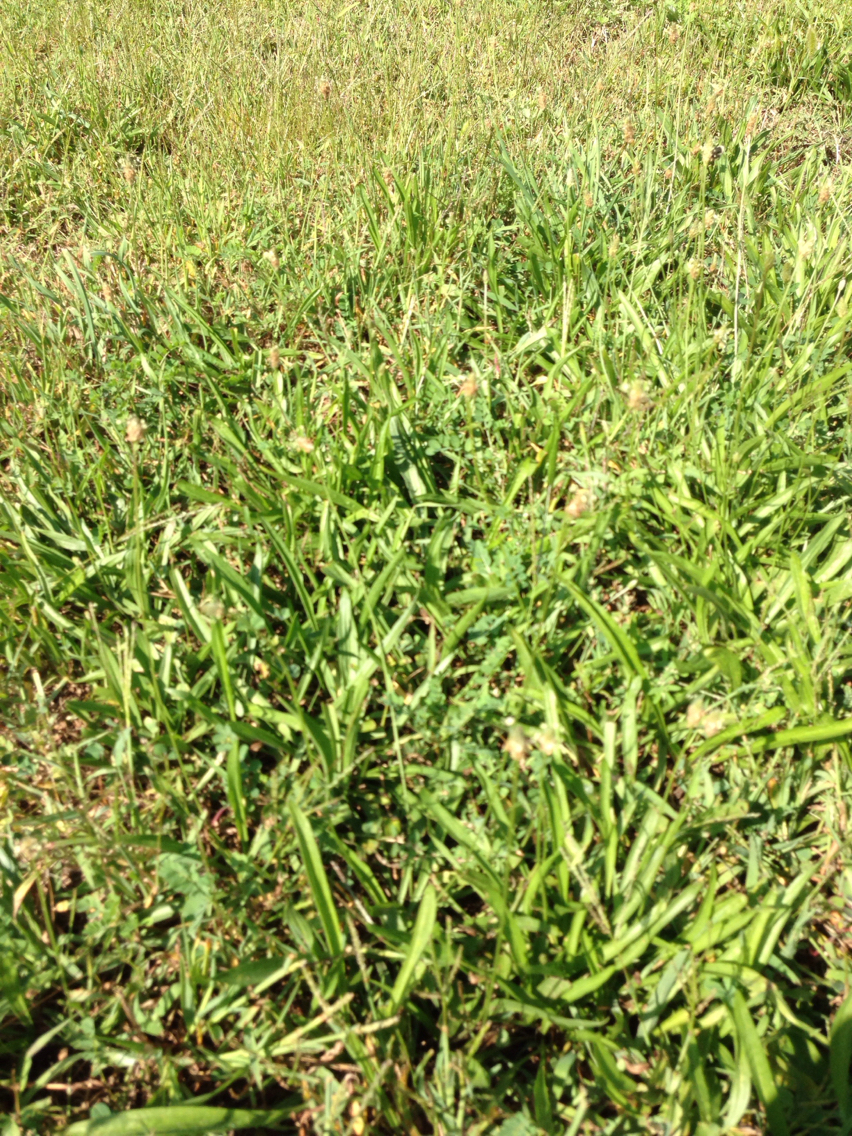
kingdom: Plantae
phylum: Tracheophyta
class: Magnoliopsida
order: Lamiales
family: Plantaginaceae
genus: Plantago
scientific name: Plantago lanceolata
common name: Ribwort plantain
